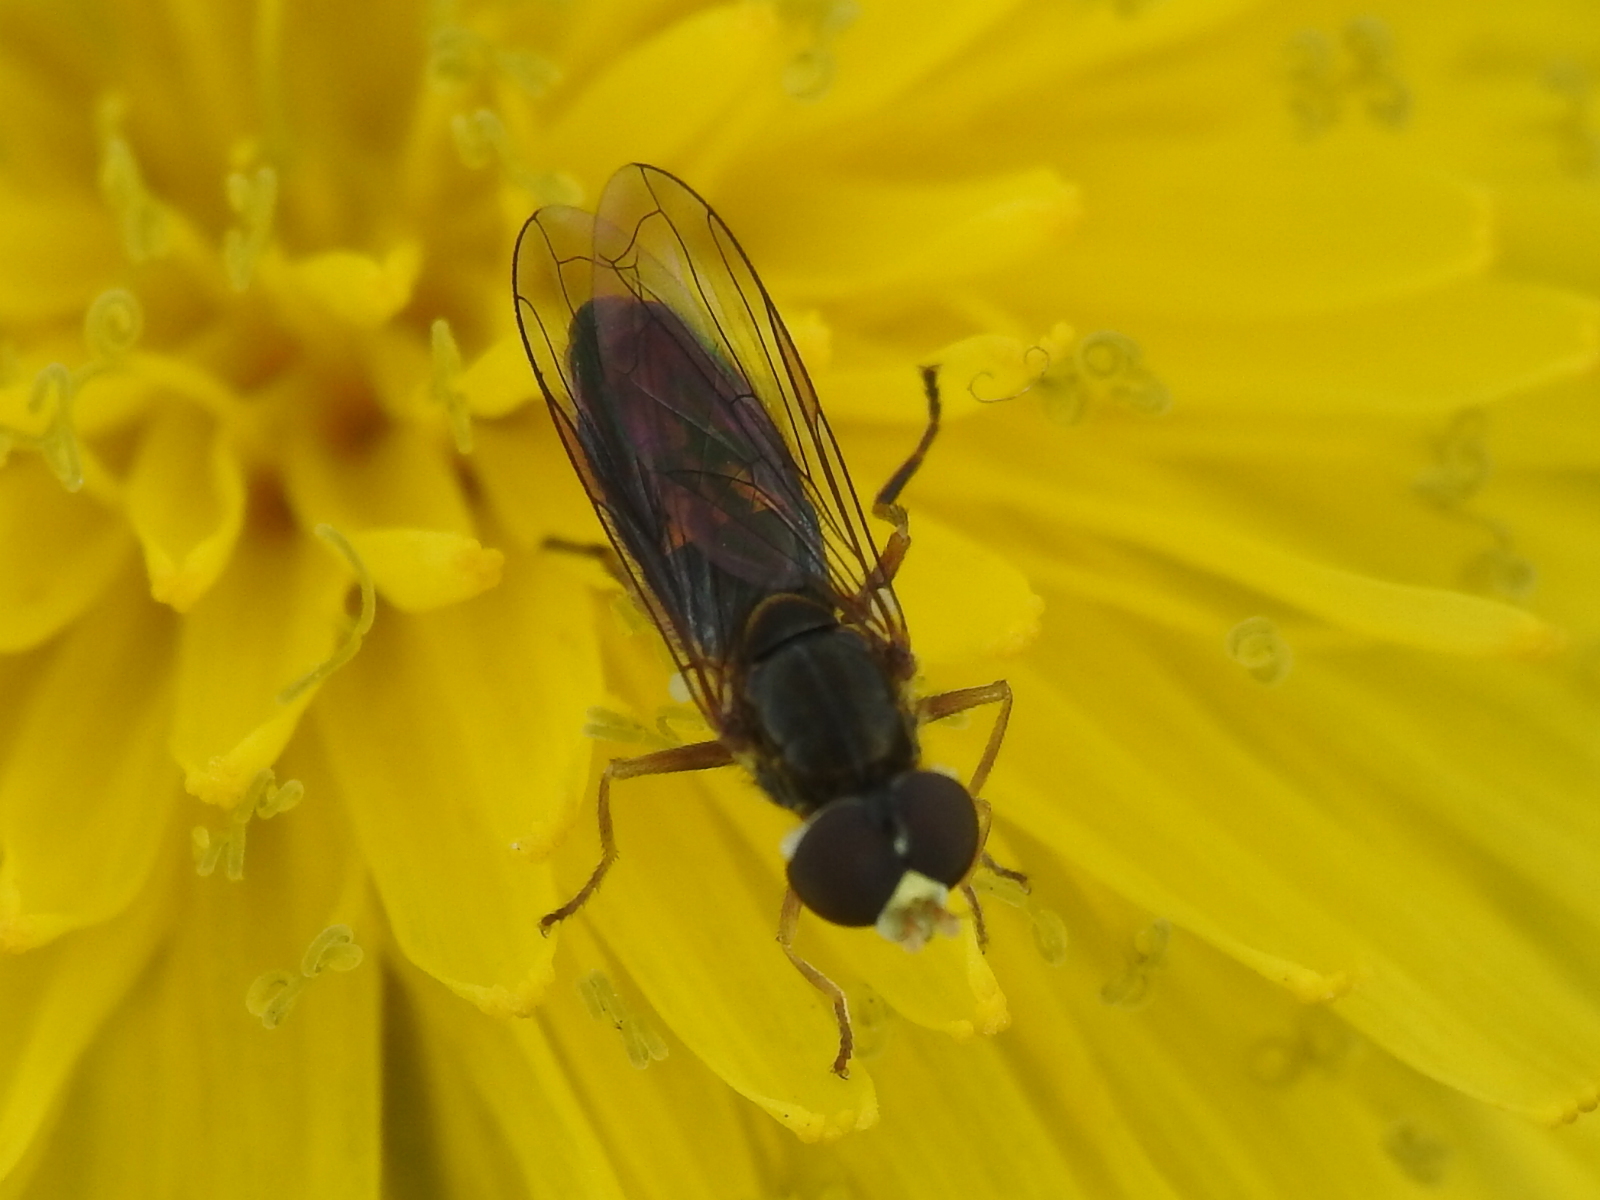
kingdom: Animalia
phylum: Arthropoda
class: Insecta
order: Diptera
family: Syrphidae
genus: Toxomerus
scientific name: Toxomerus marginatus
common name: Syrphid fly
